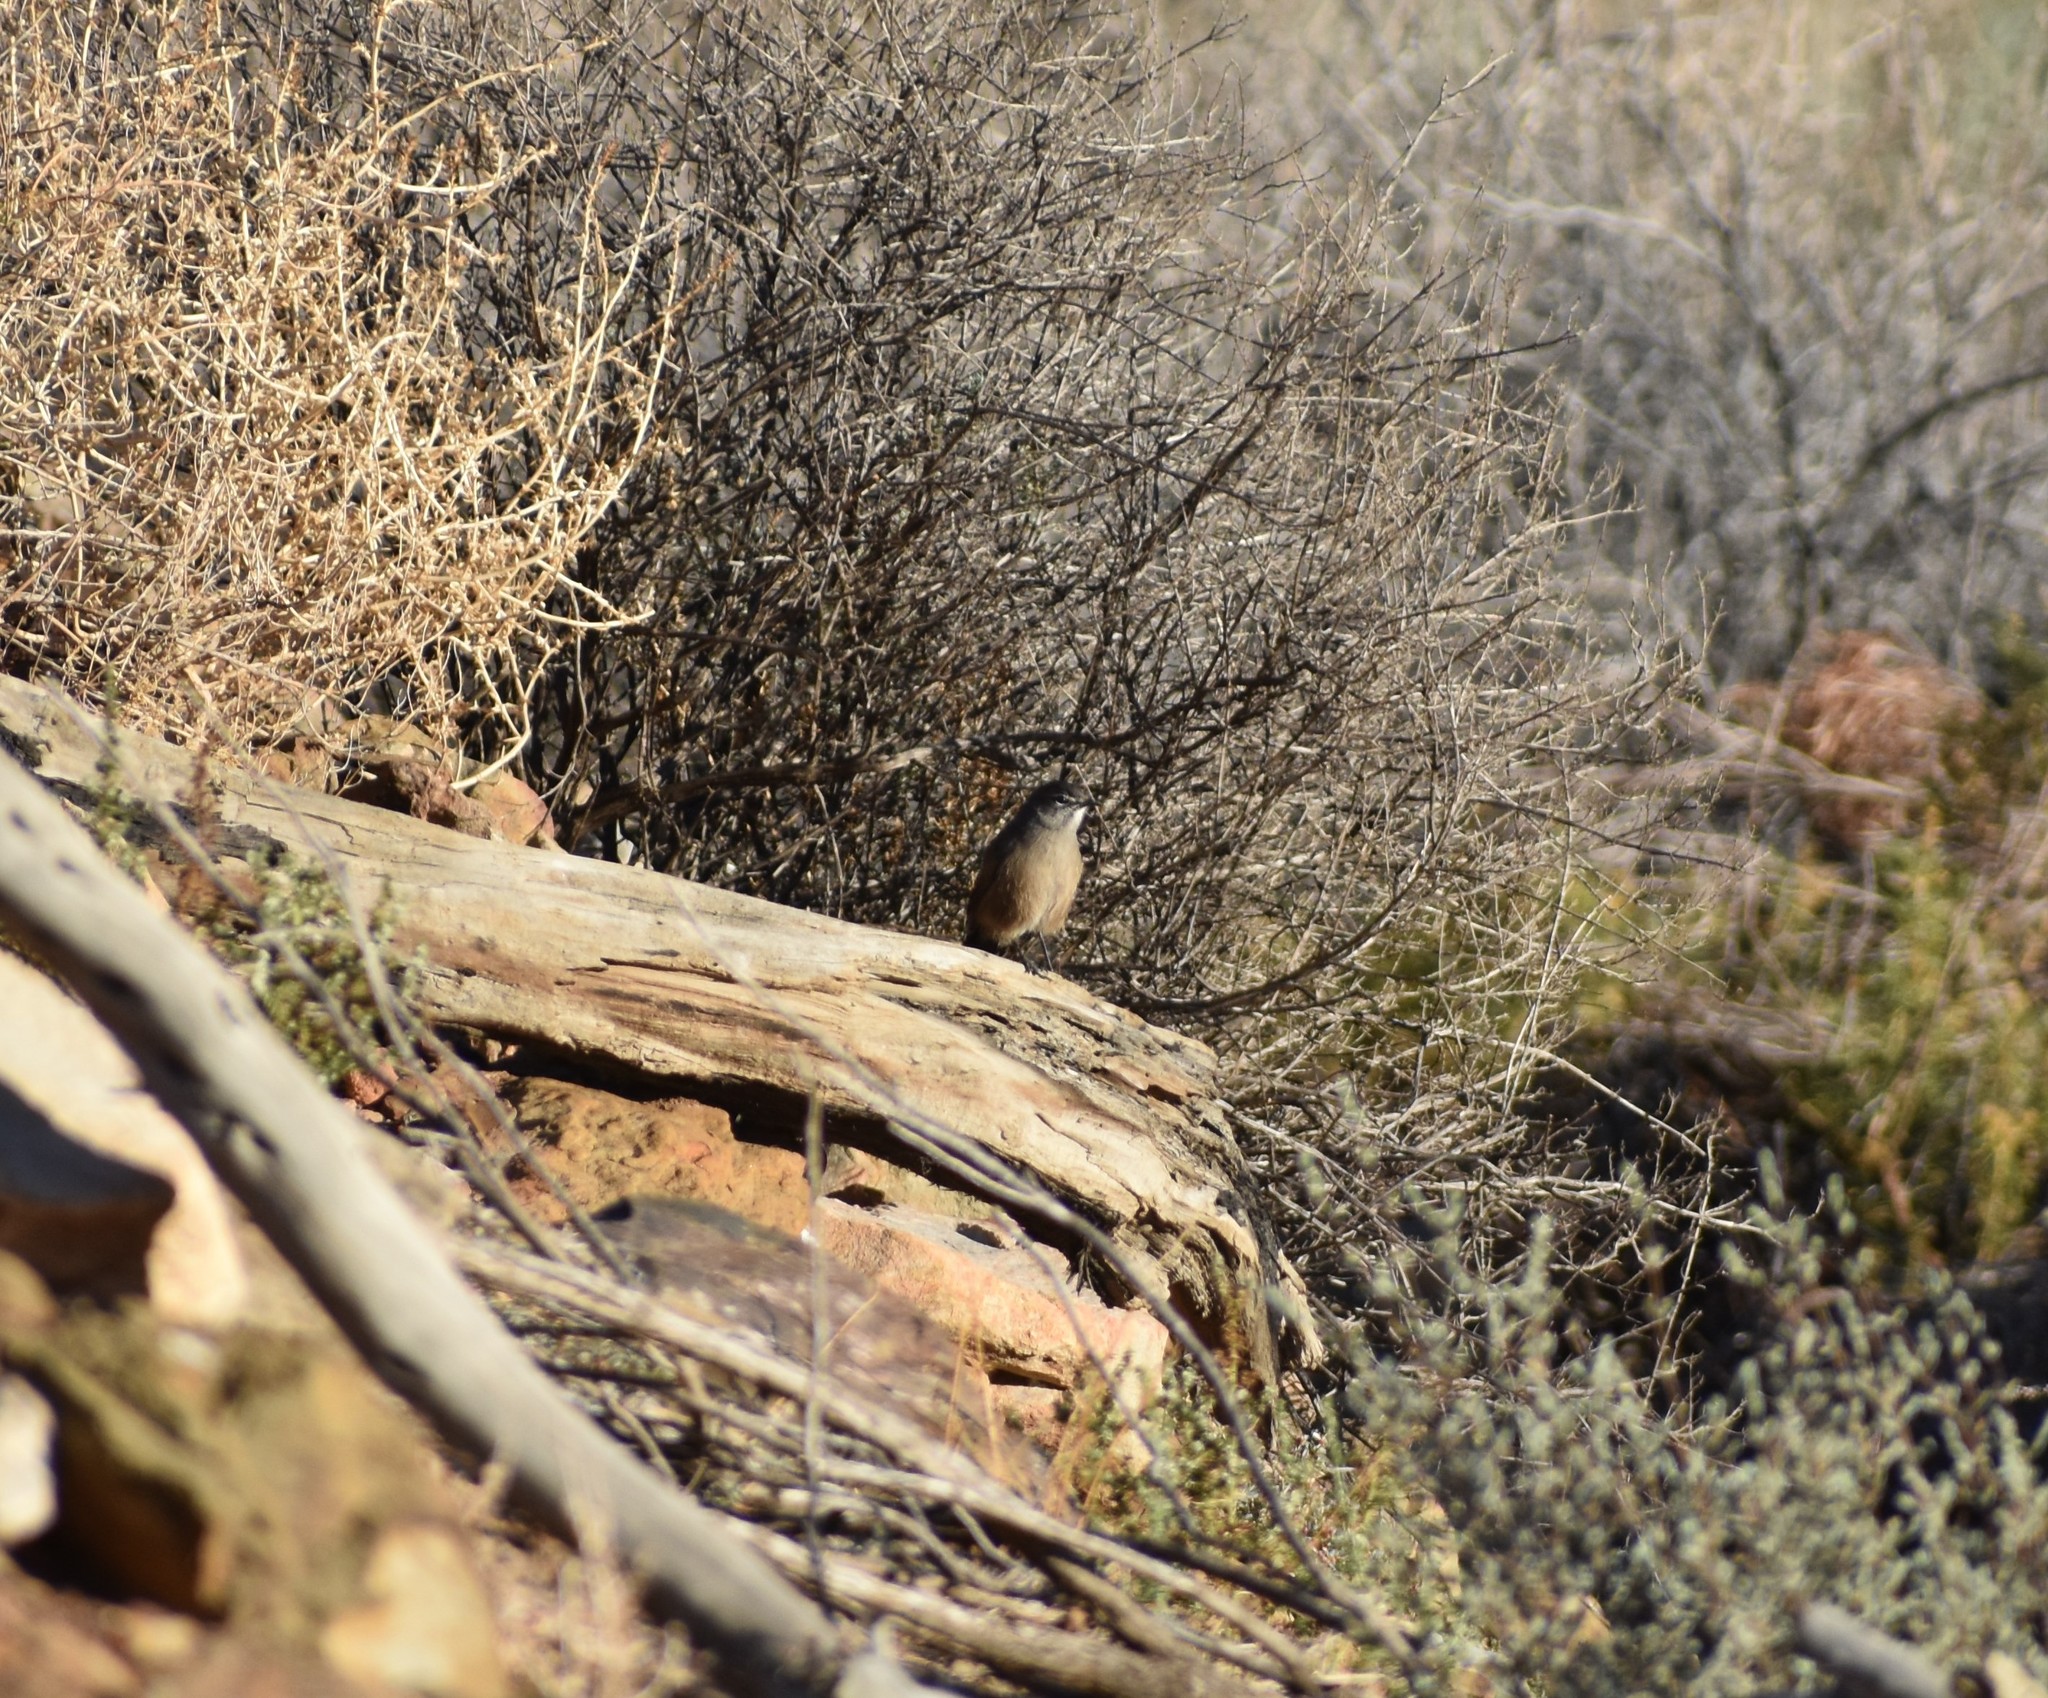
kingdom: Animalia
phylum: Chordata
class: Aves
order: Passeriformes
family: Muscicapidae
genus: Erythropygia
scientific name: Erythropygia coryphoeus
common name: Karoo scrub robin
